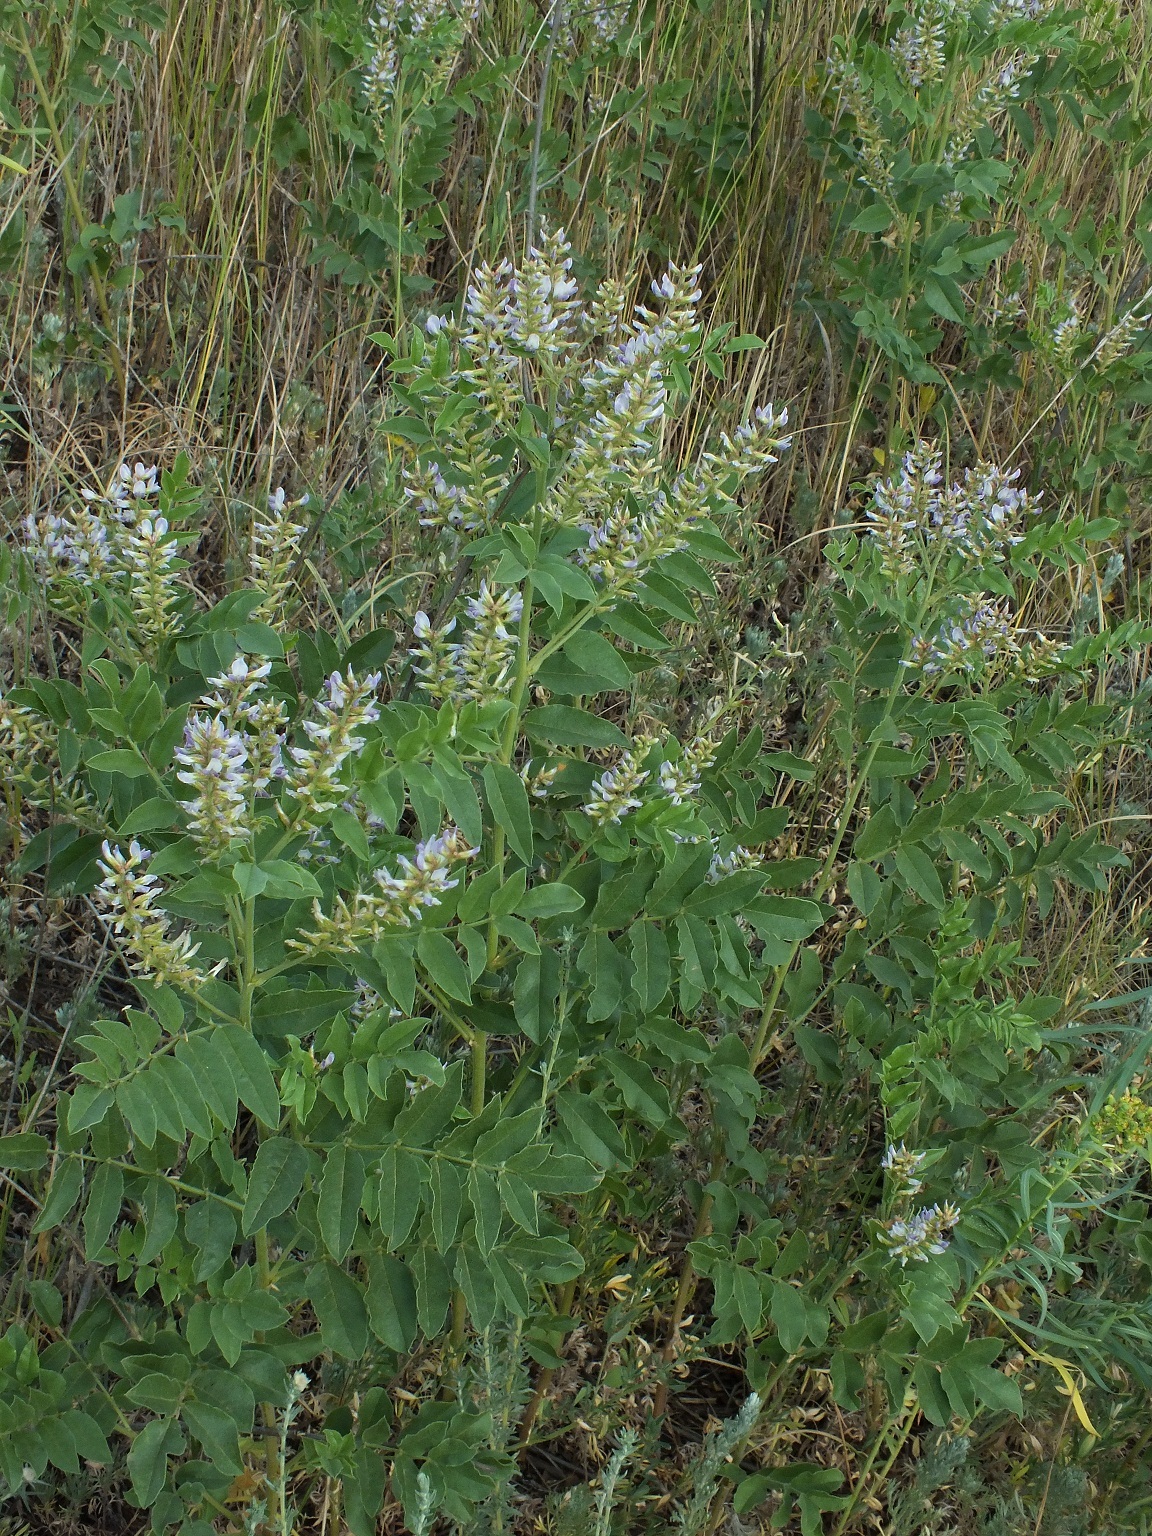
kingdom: Plantae
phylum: Tracheophyta
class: Magnoliopsida
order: Fabales
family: Fabaceae
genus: Glycyrrhiza
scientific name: Glycyrrhiza glabra
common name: Liquorice
